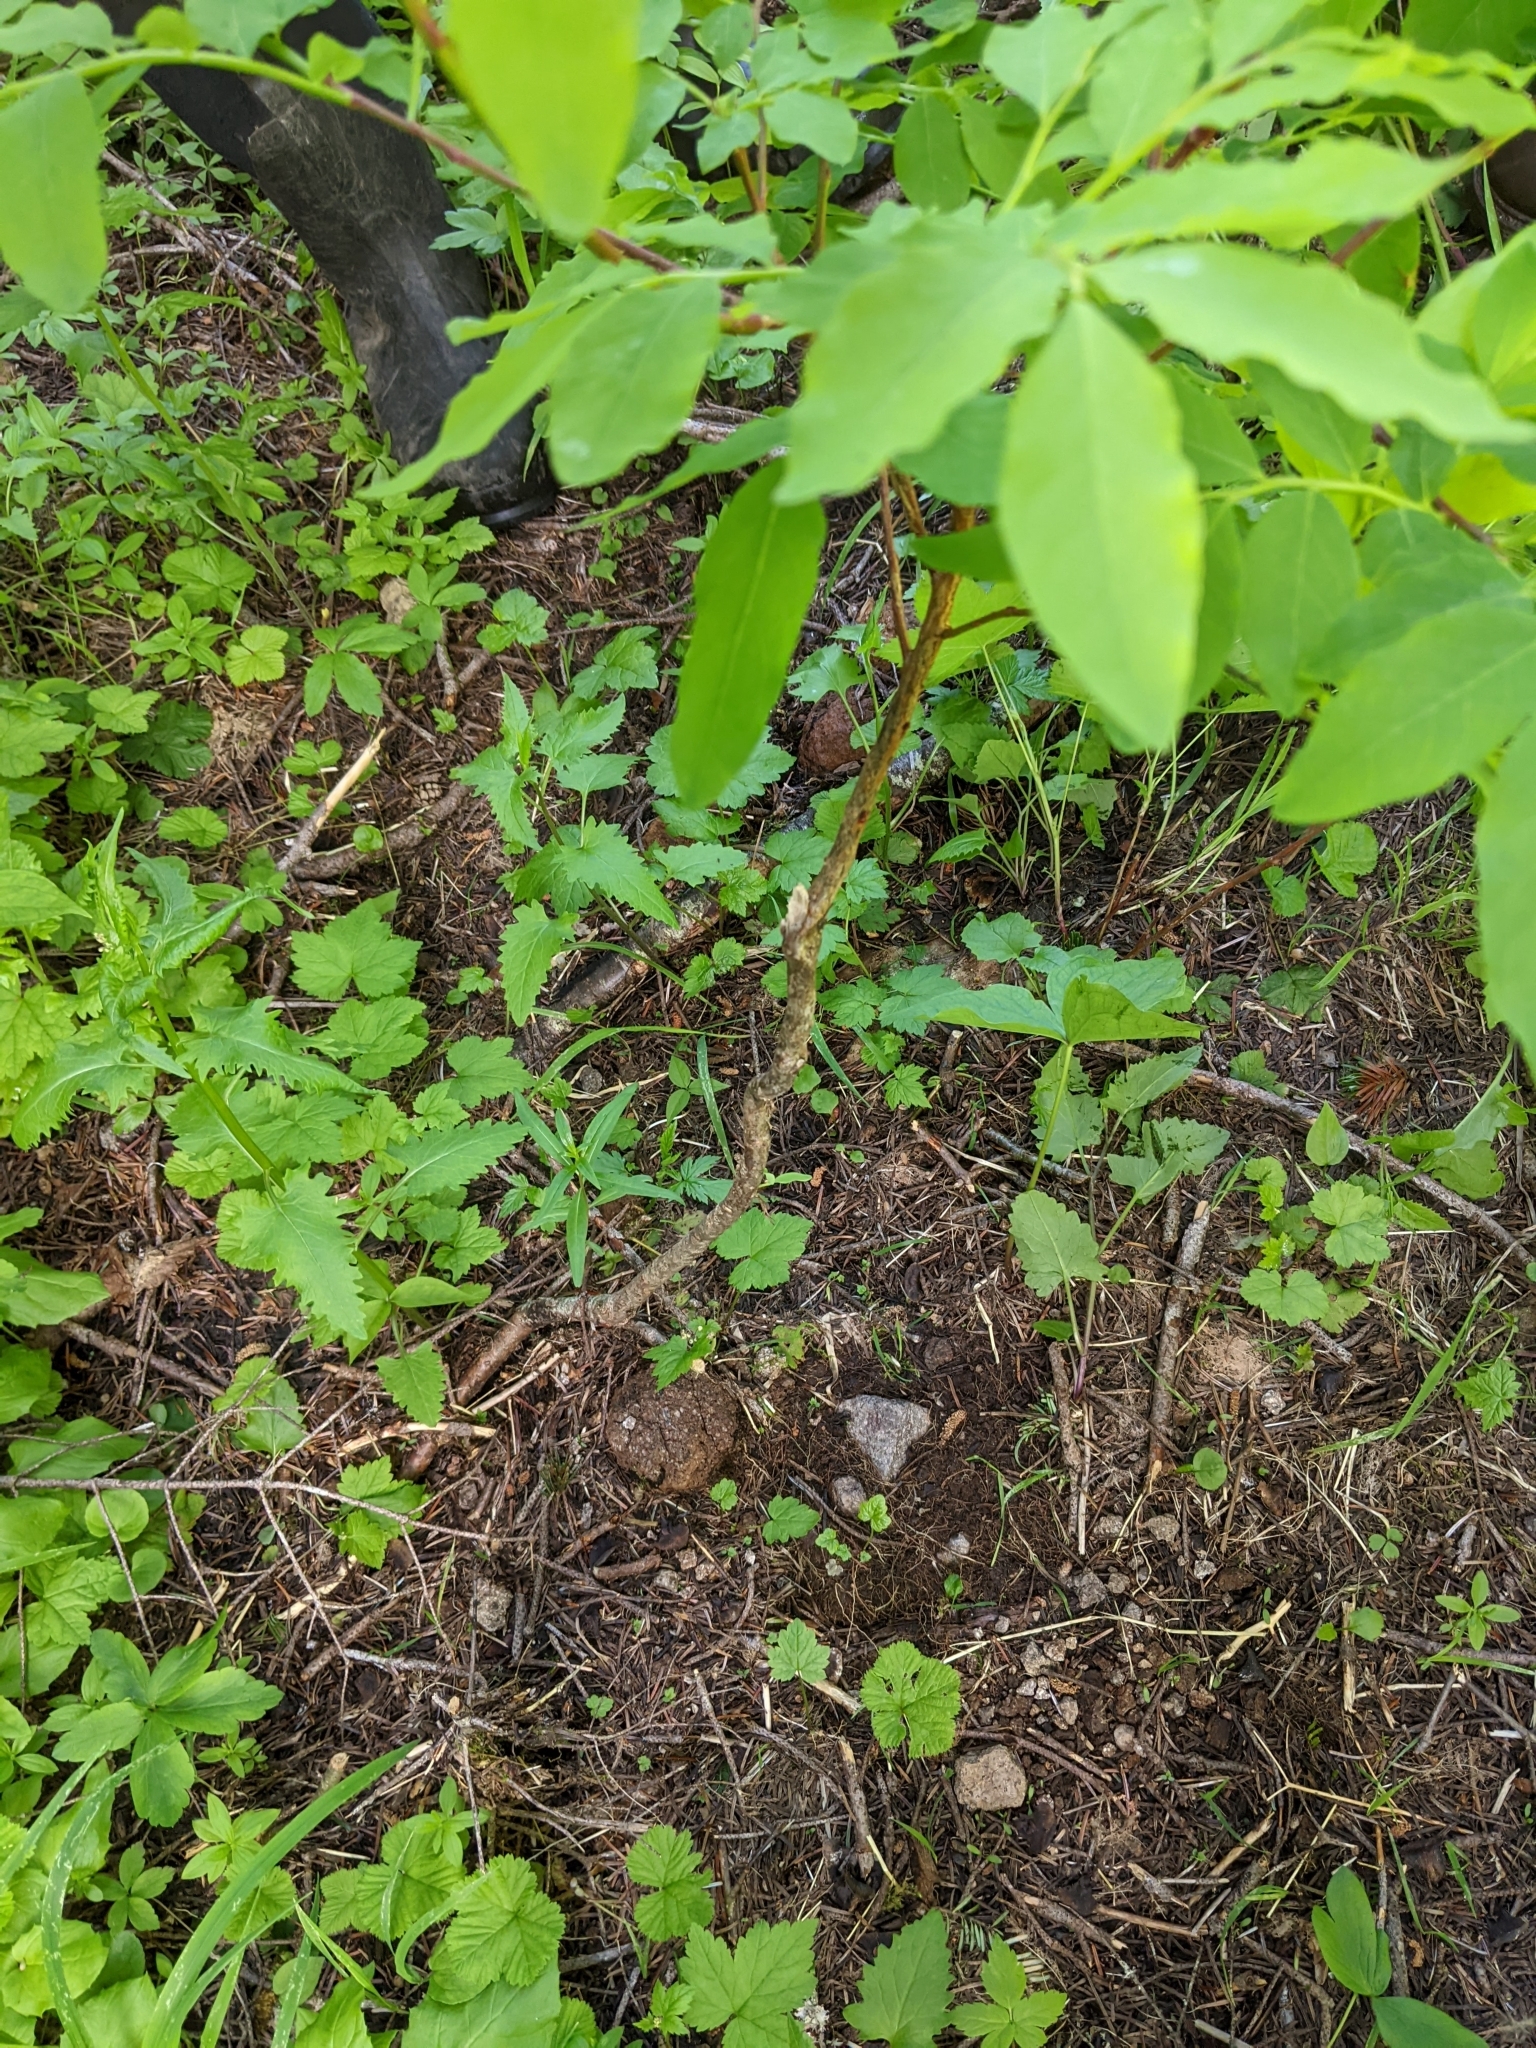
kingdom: Plantae
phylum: Tracheophyta
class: Magnoliopsida
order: Ericales
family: Ericaceae
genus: Vaccinium
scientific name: Vaccinium ovalifolium
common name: Early blueberry
